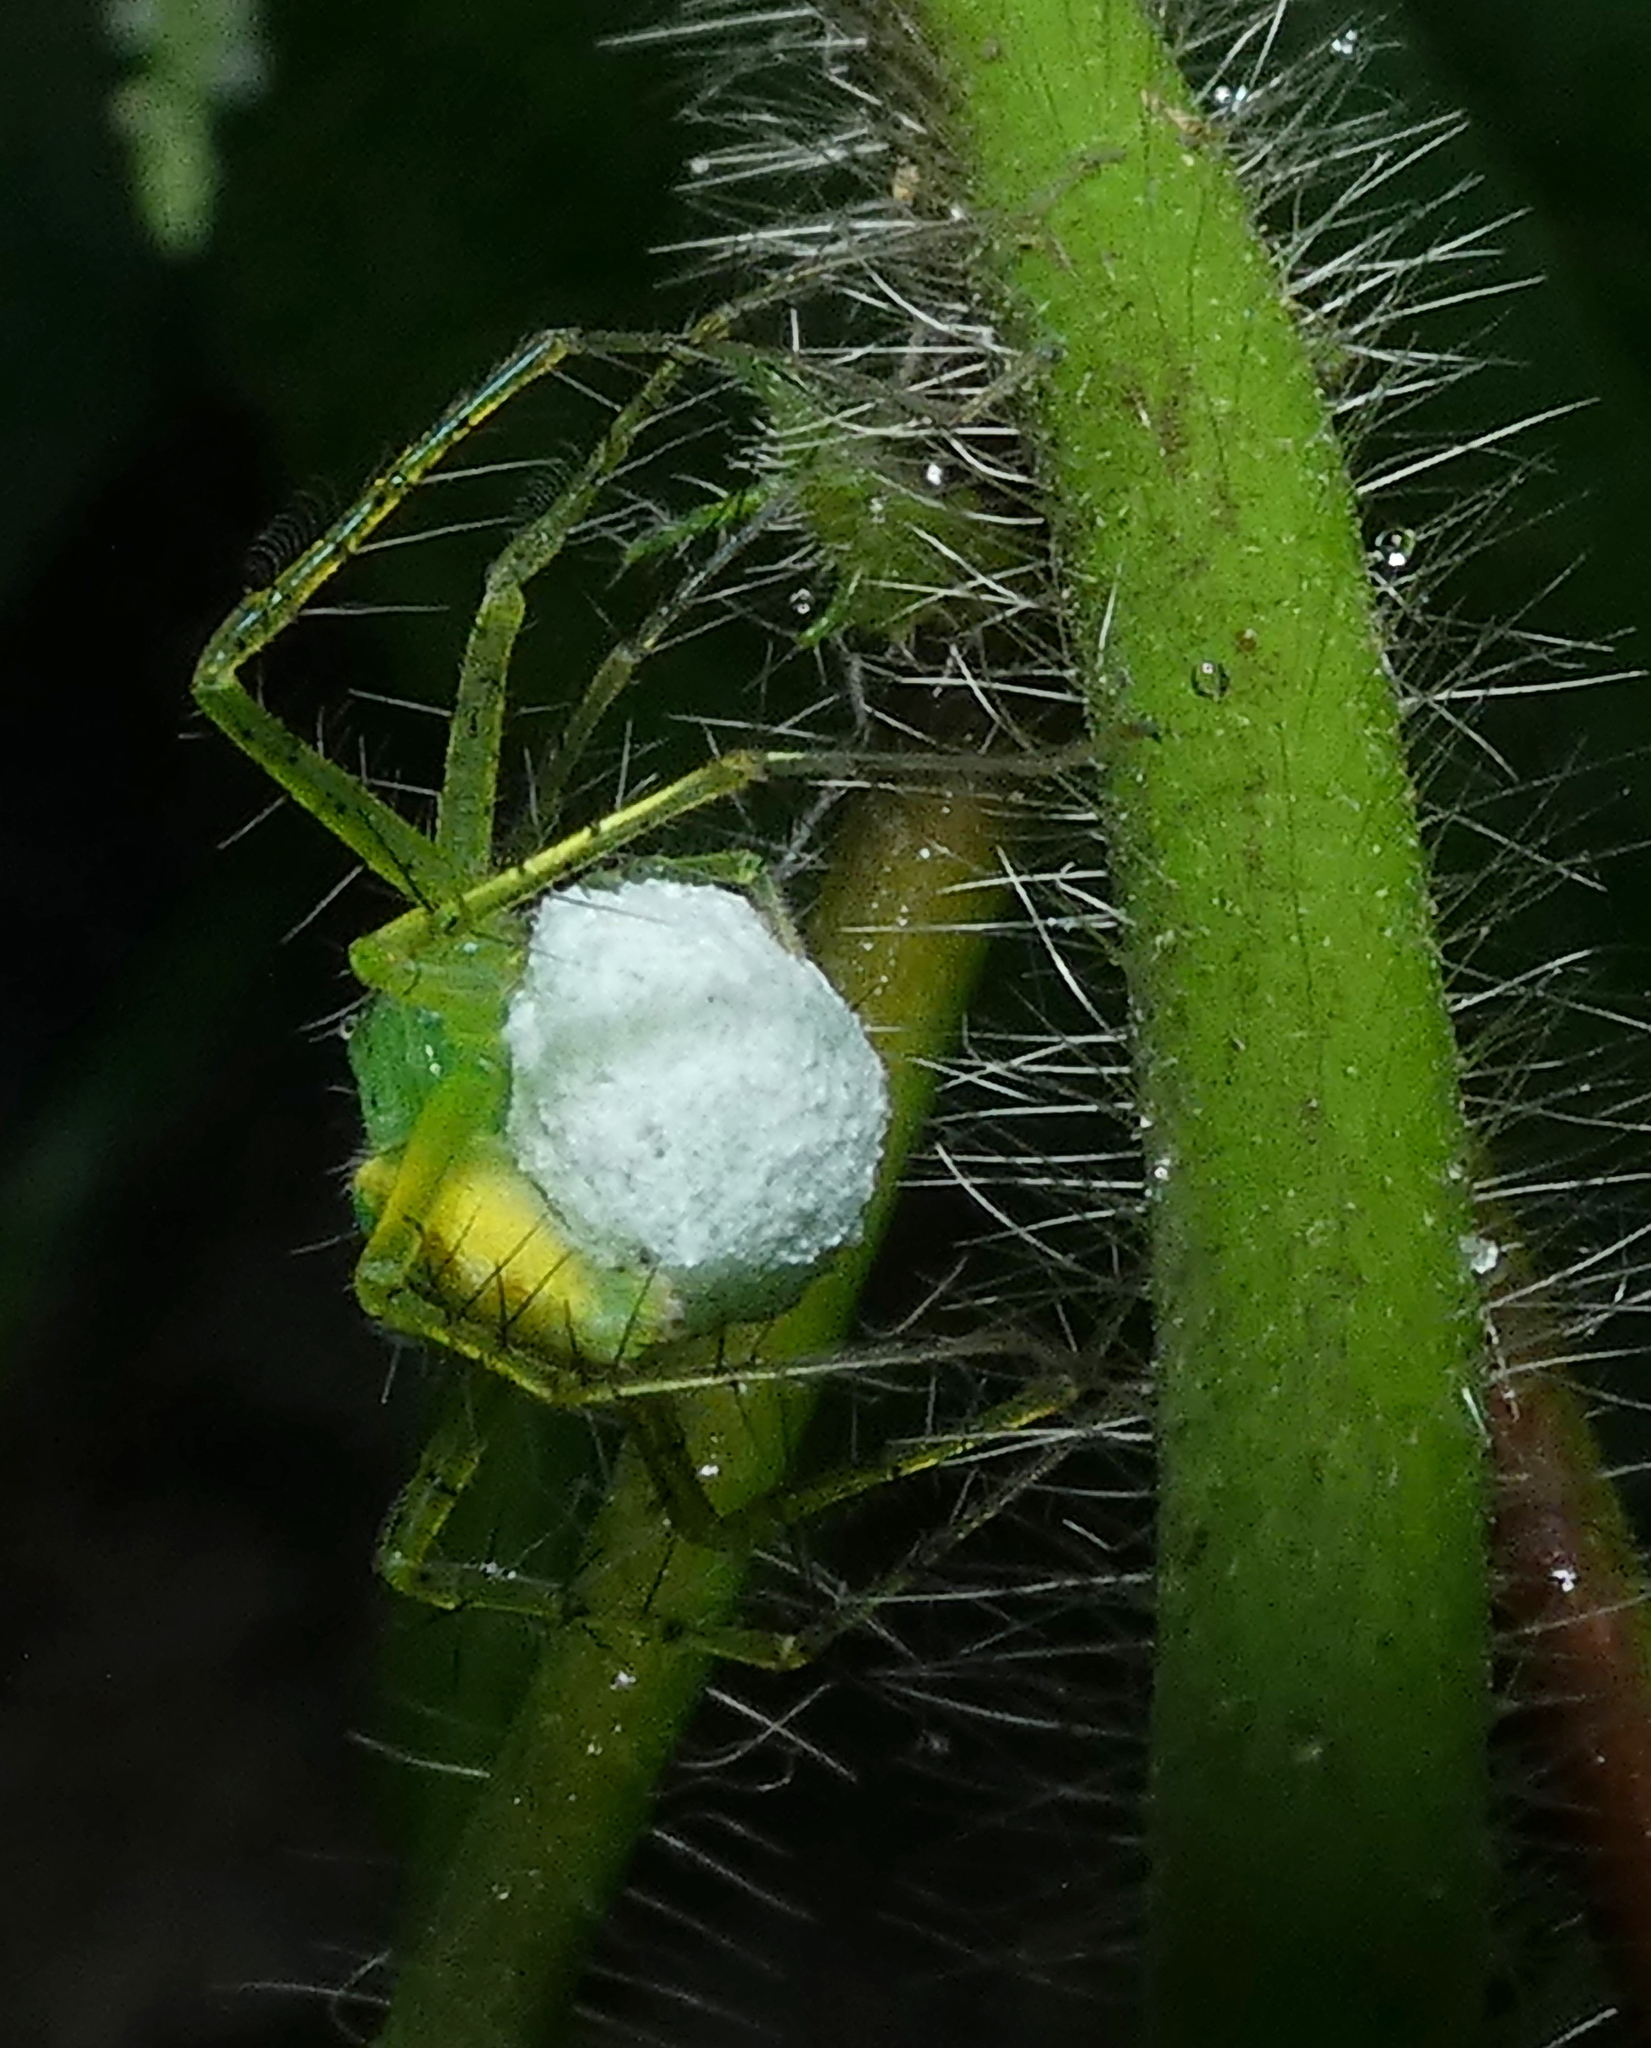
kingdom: Animalia
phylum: Arthropoda
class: Arachnida
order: Araneae
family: Pisauridae
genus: Architis
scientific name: Architis spinipes
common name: Nursery web spiders
